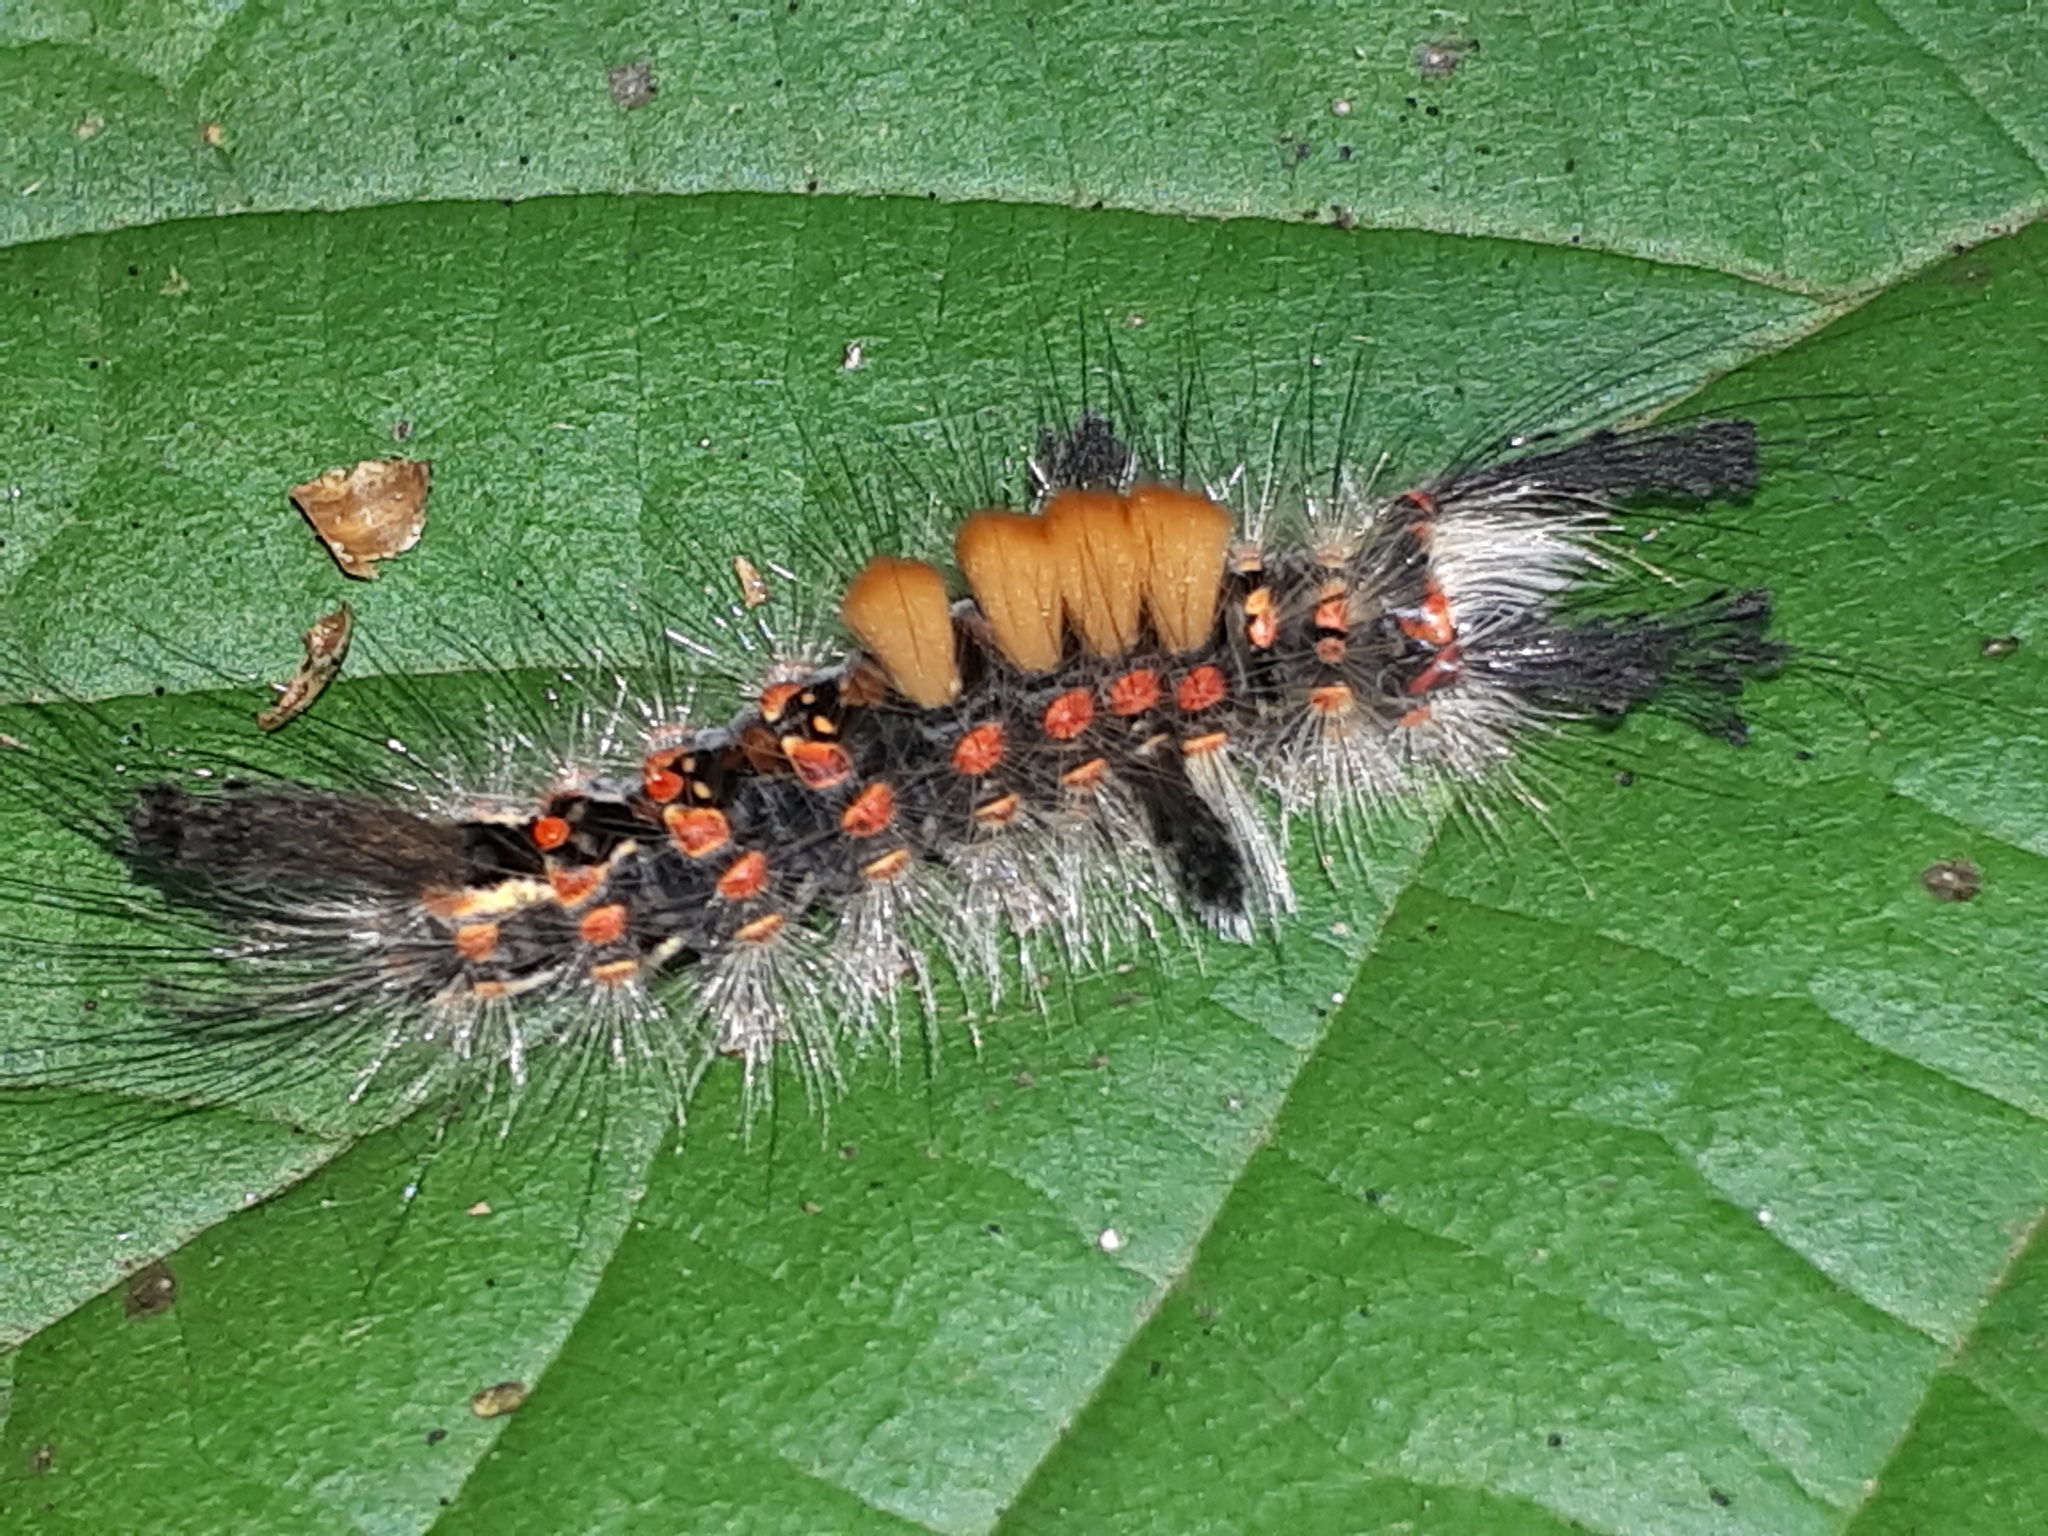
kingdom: Animalia
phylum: Arthropoda
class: Insecta
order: Lepidoptera
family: Erebidae
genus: Orgyia
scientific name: Orgyia antiqua
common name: Vapourer
